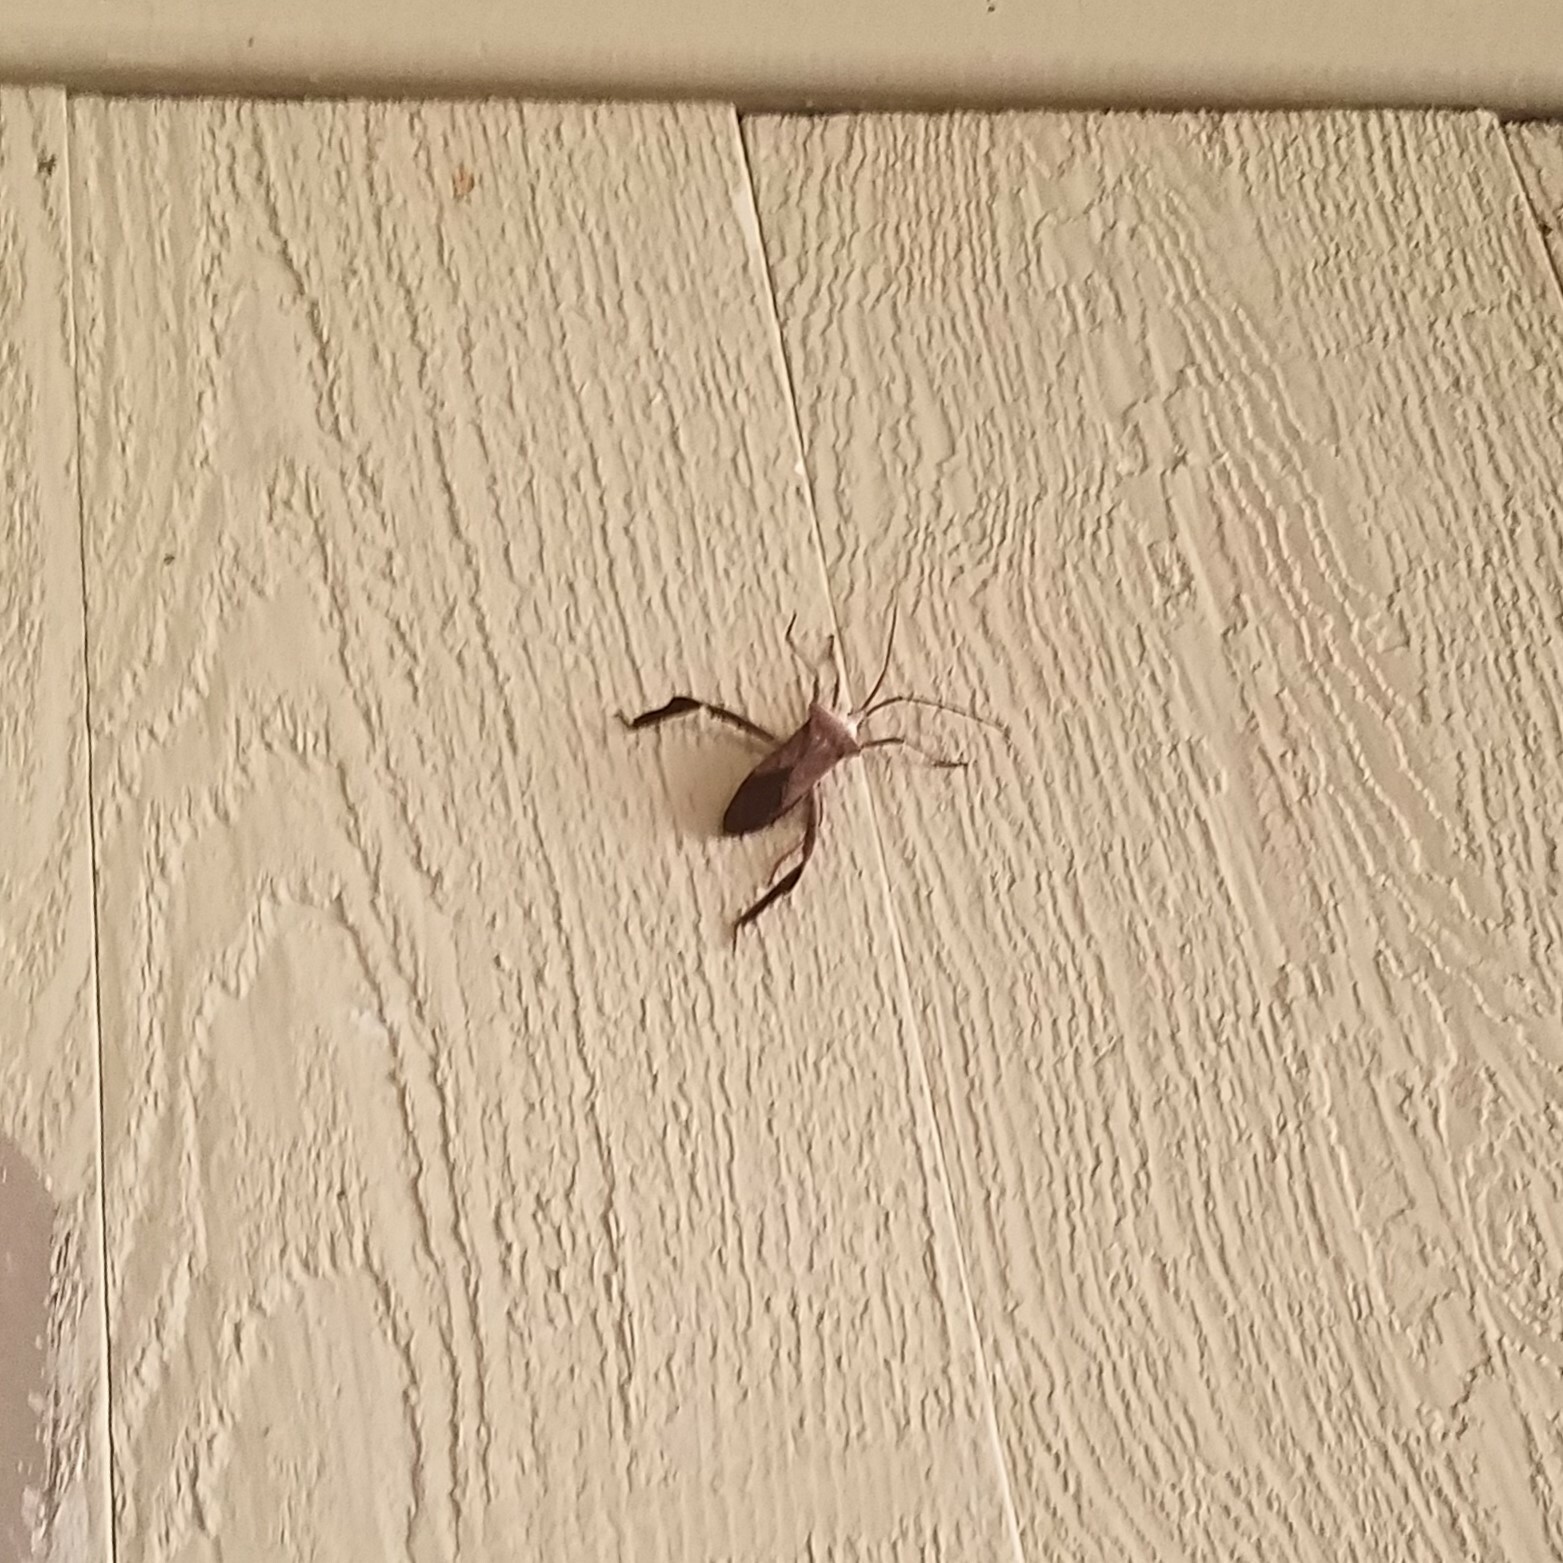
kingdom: Animalia
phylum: Arthropoda
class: Insecta
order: Hemiptera
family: Coreidae
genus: Acanthocephala
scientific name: Acanthocephala declivis
